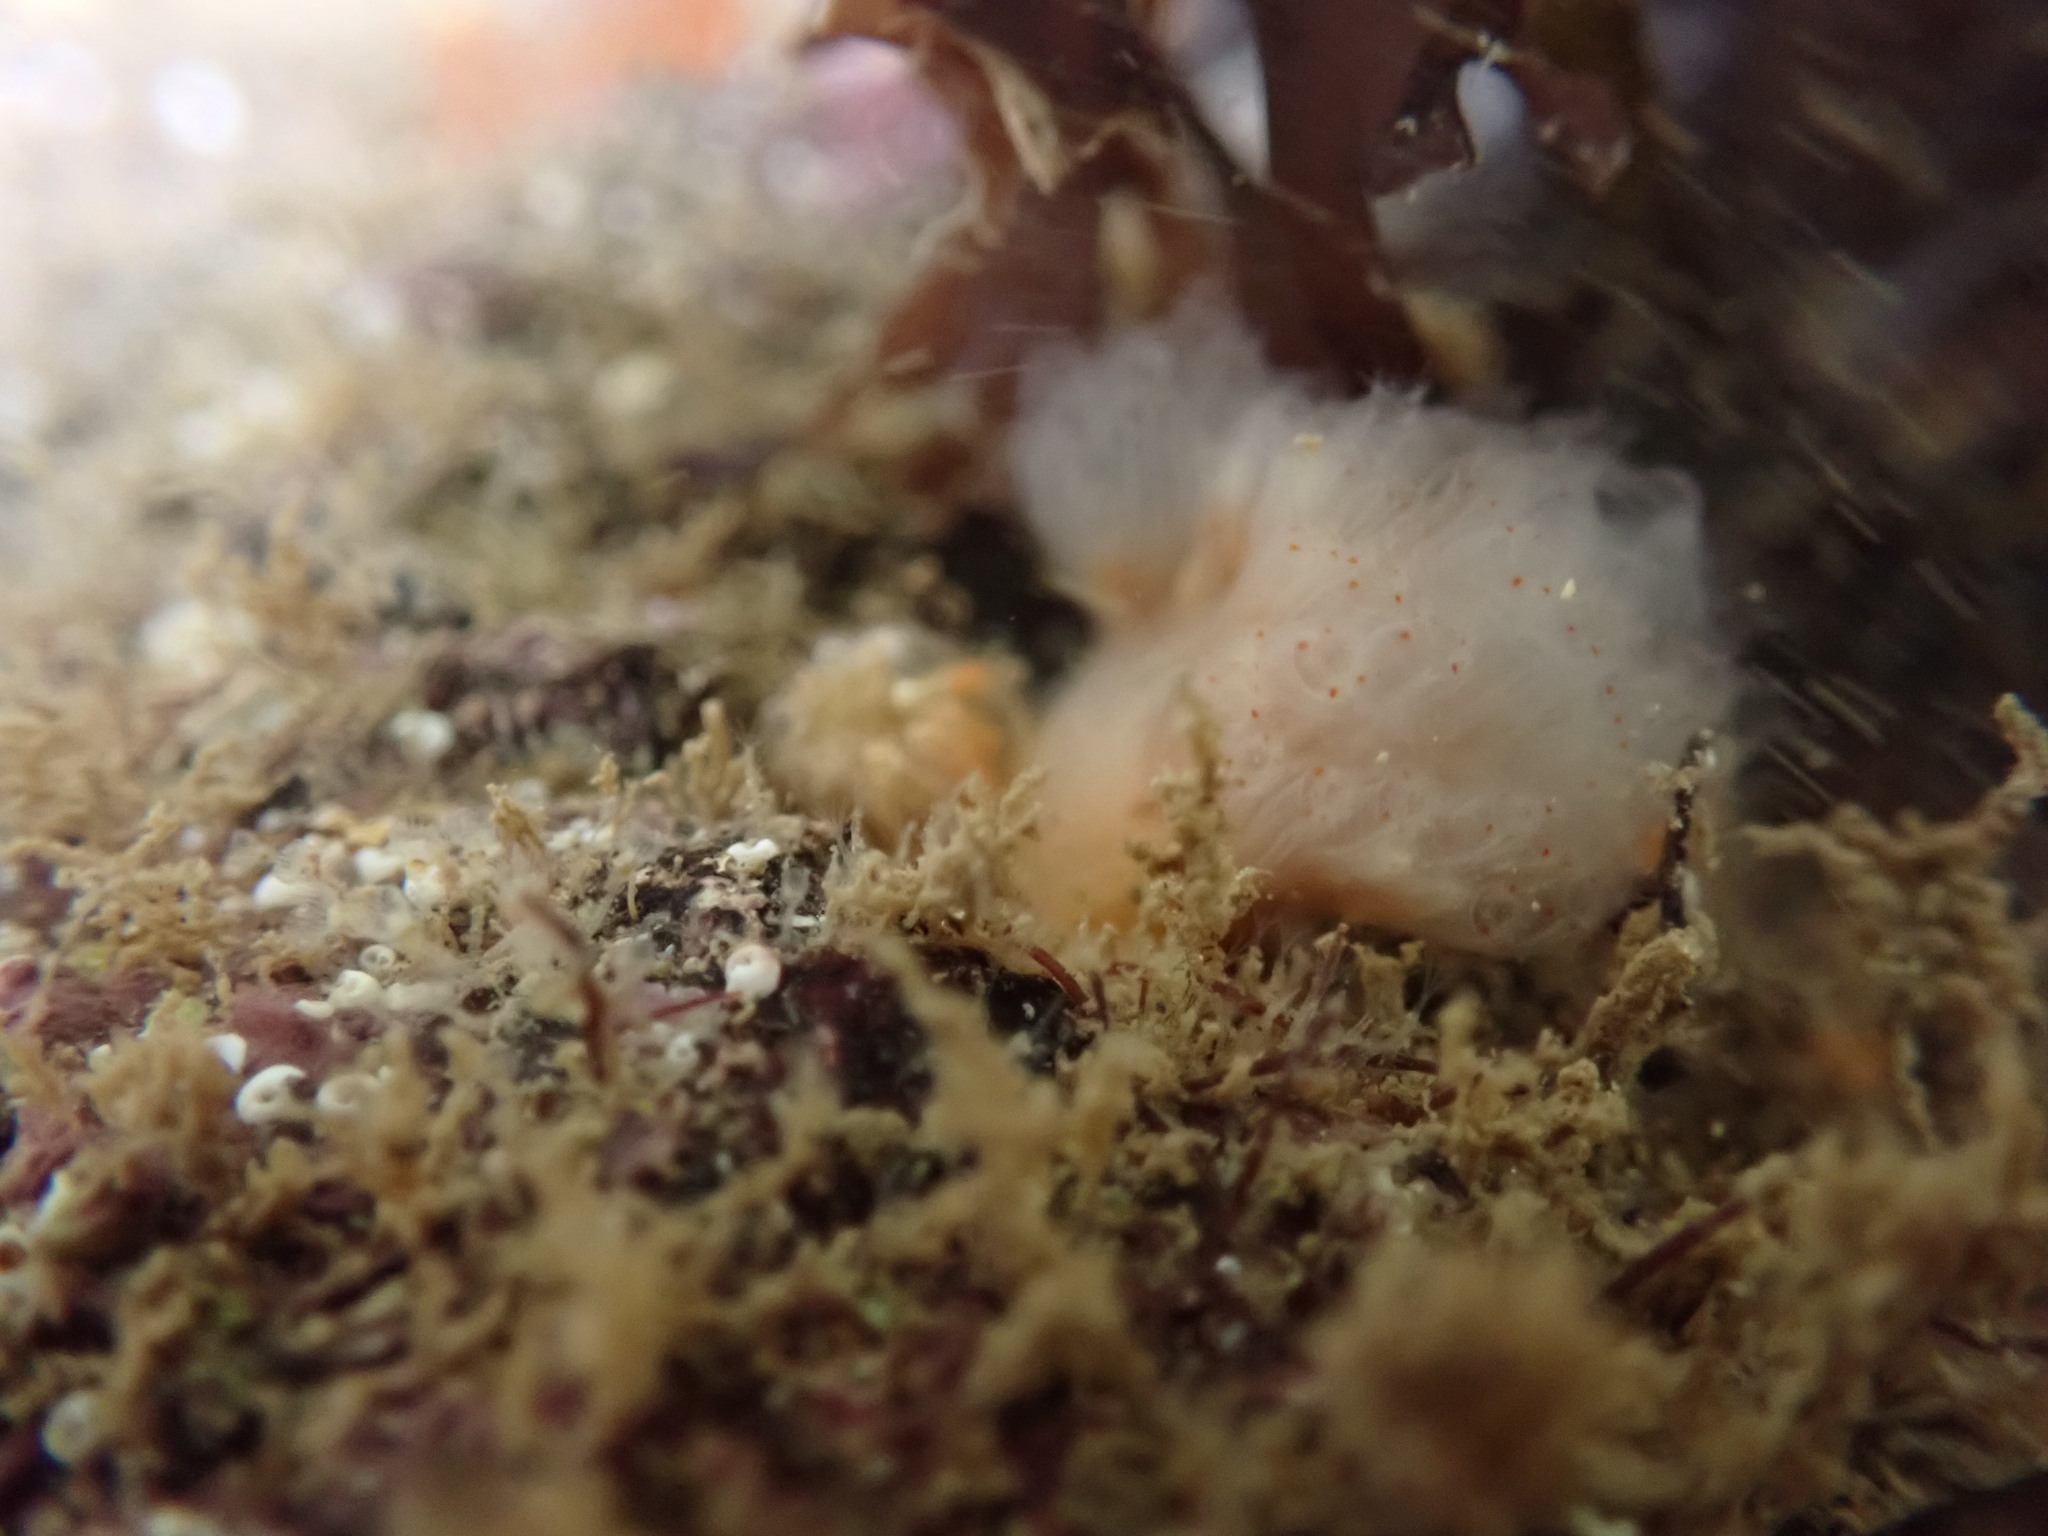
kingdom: Animalia
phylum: Chordata
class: Ascidiacea
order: Aplousobranchia
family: Polyclinidae
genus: Morchellium
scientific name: Morchellium argus
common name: Colonial sesquirt
